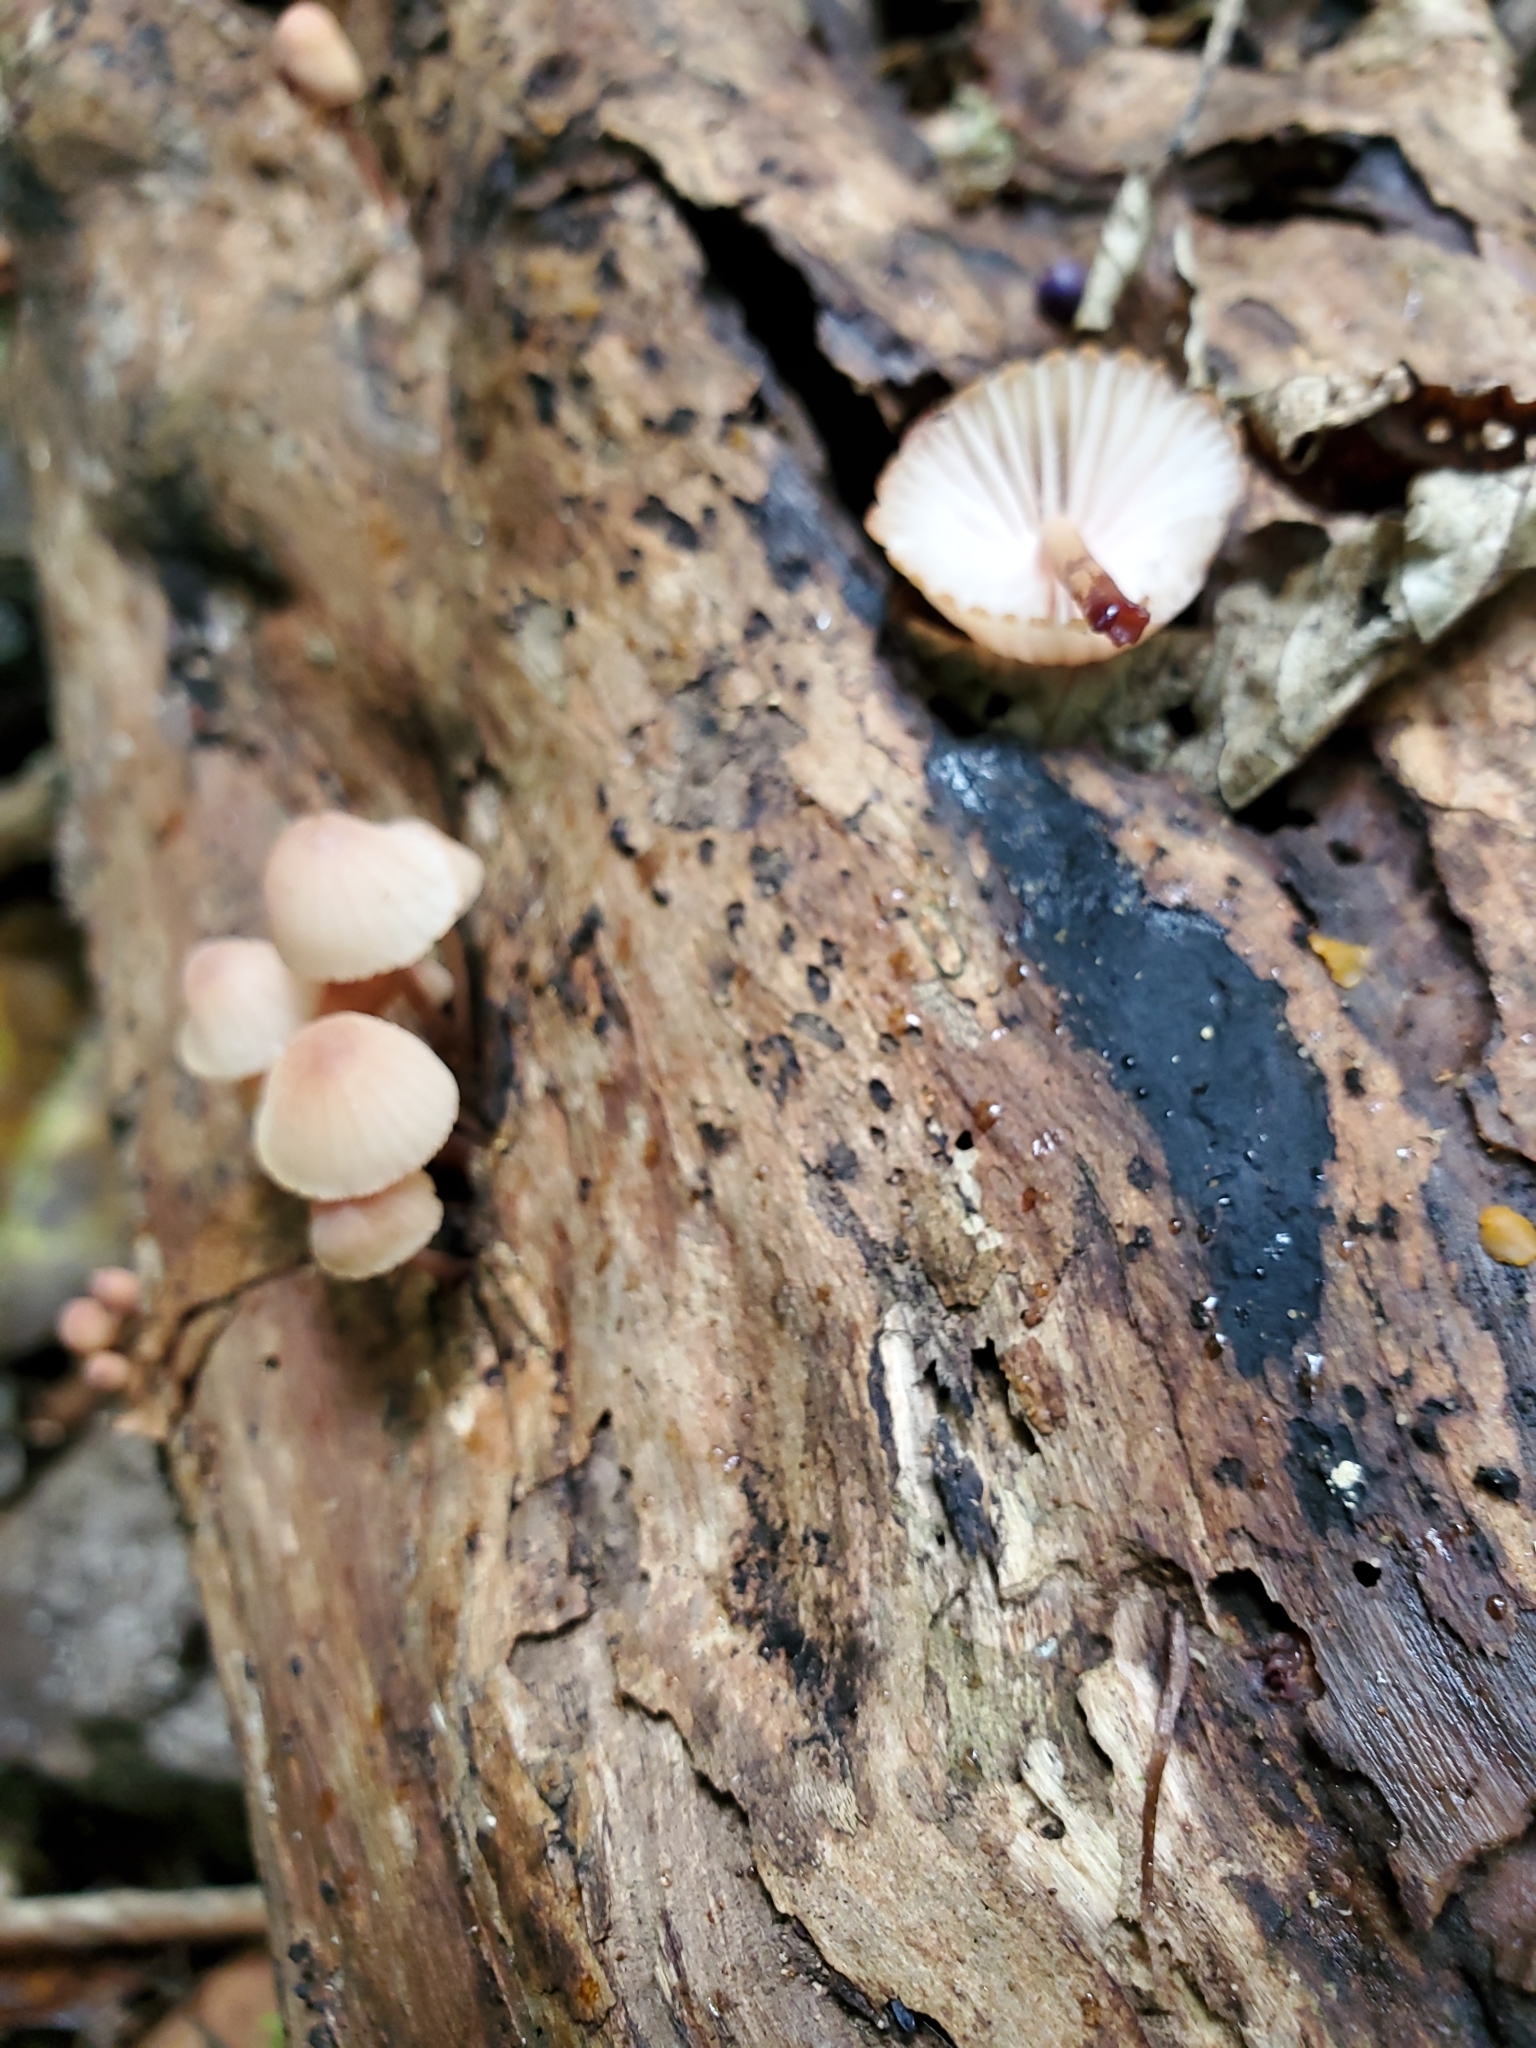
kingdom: Fungi
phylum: Basidiomycota
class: Agaricomycetes
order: Agaricales
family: Mycenaceae
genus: Mycena
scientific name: Mycena mariae
